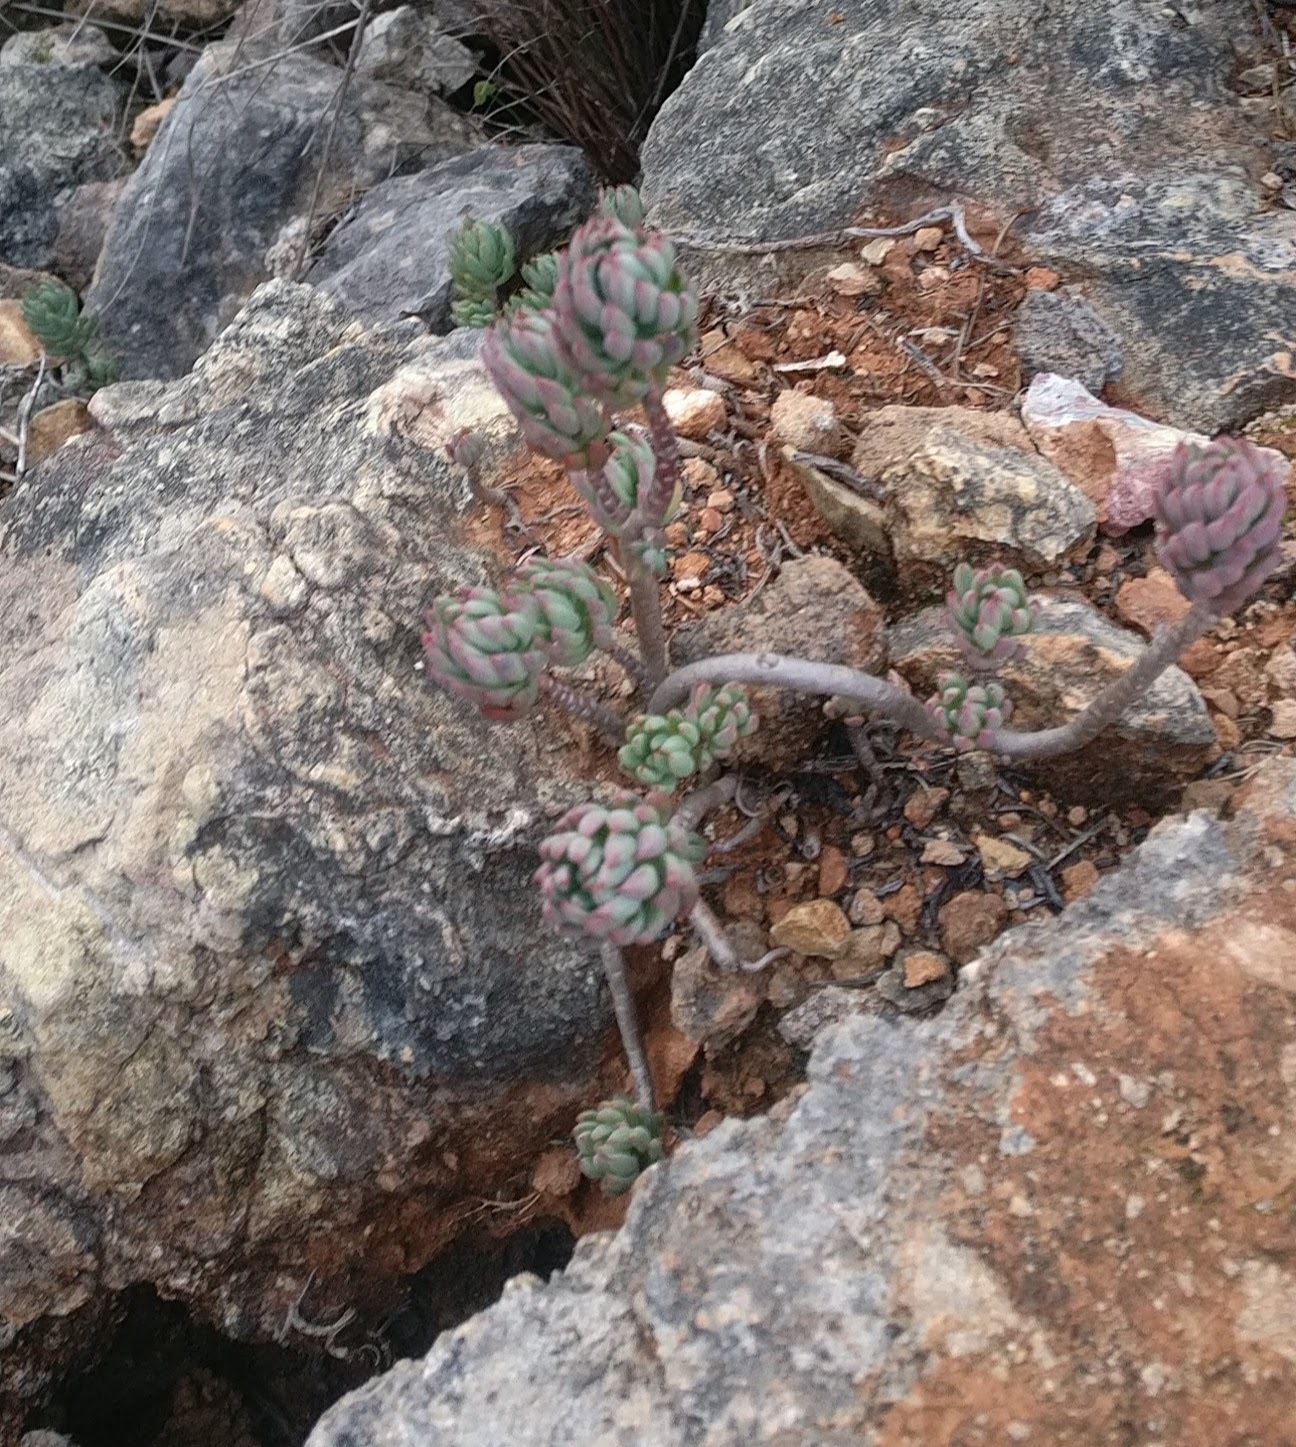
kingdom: Plantae
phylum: Tracheophyta
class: Magnoliopsida
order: Saxifragales
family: Crassulaceae
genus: Petrosedum
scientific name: Petrosedum sediforme
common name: Pale stonecrop
